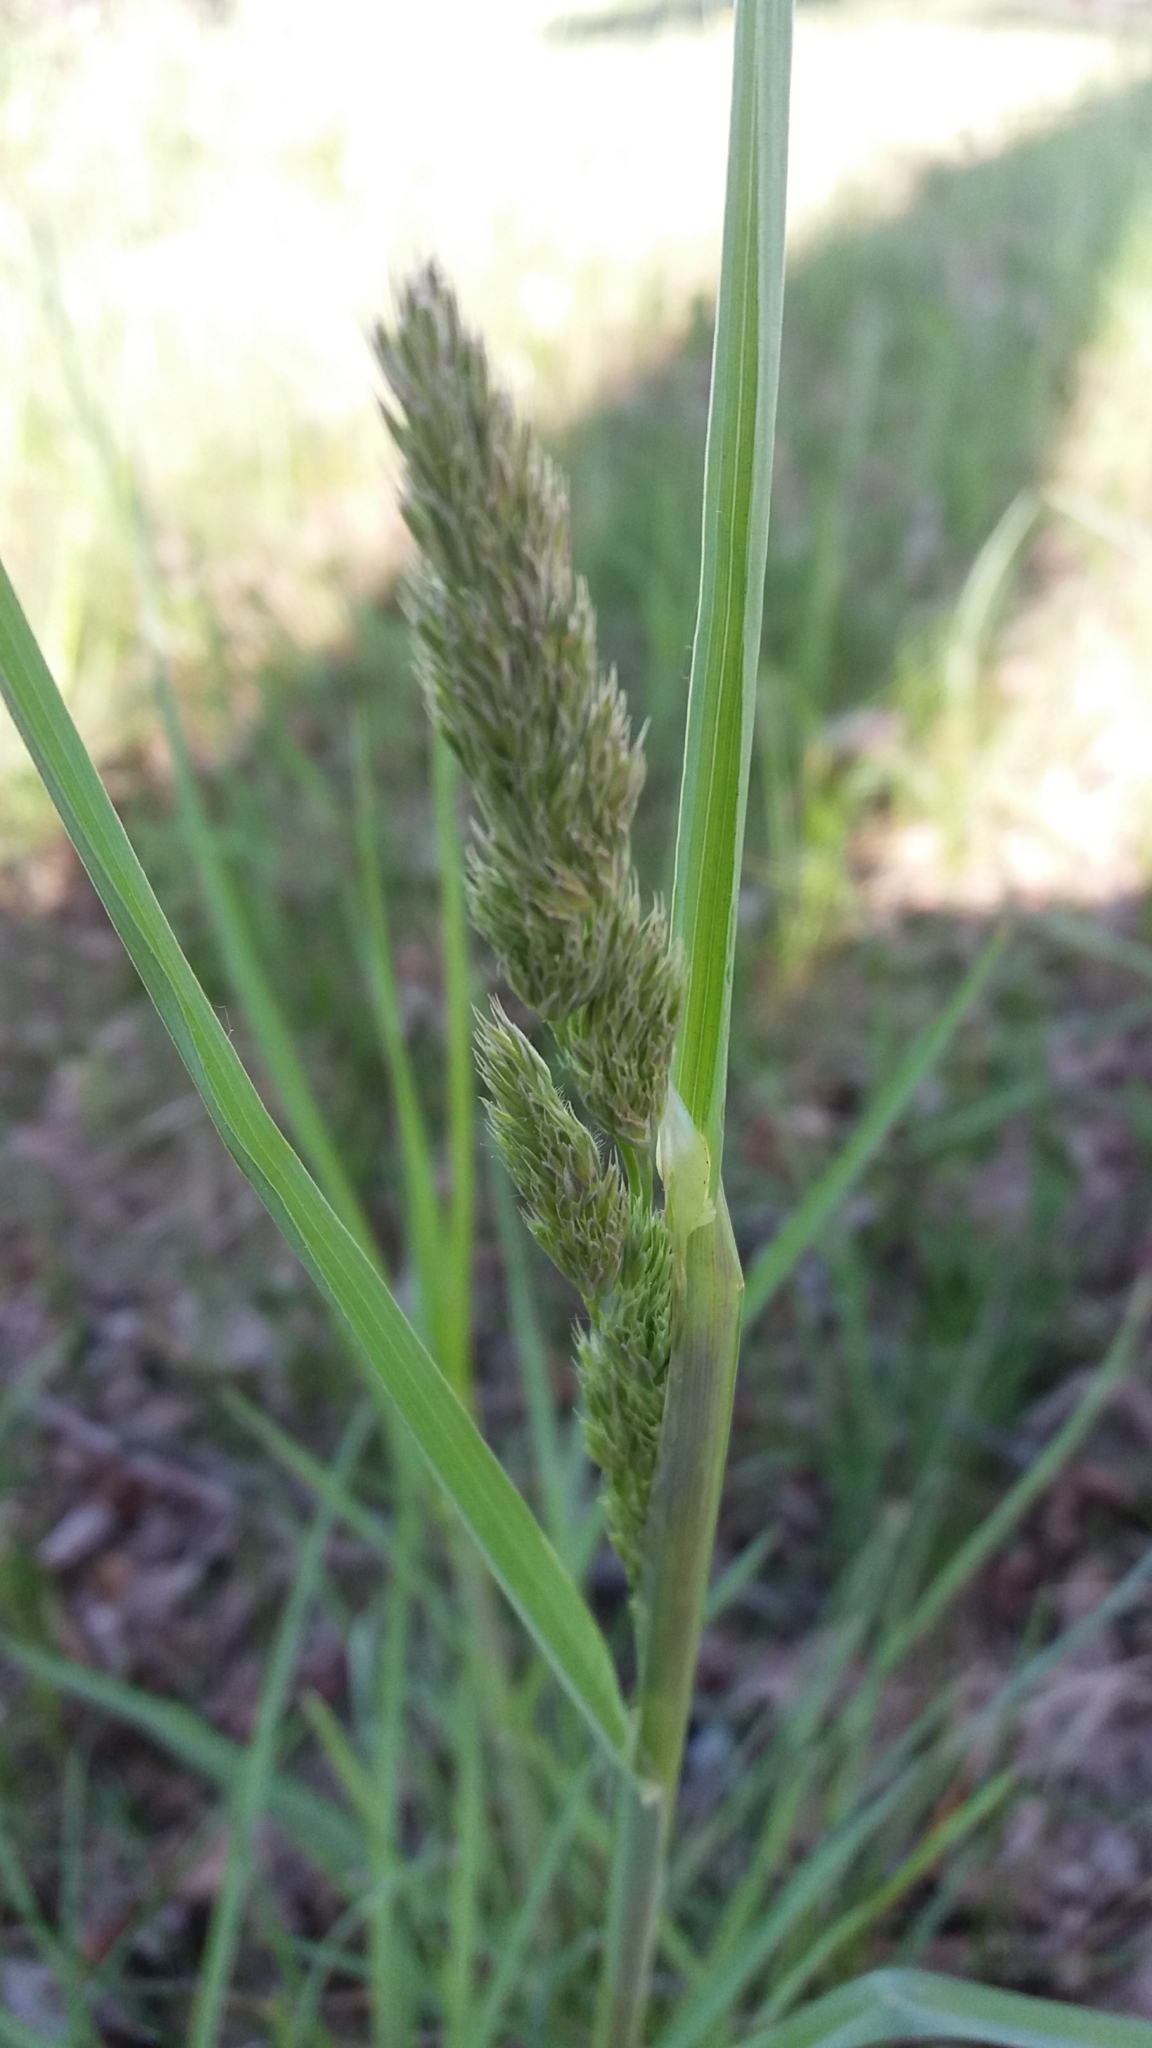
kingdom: Plantae
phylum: Tracheophyta
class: Liliopsida
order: Poales
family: Poaceae
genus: Dactylis
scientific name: Dactylis glomerata
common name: Orchardgrass
